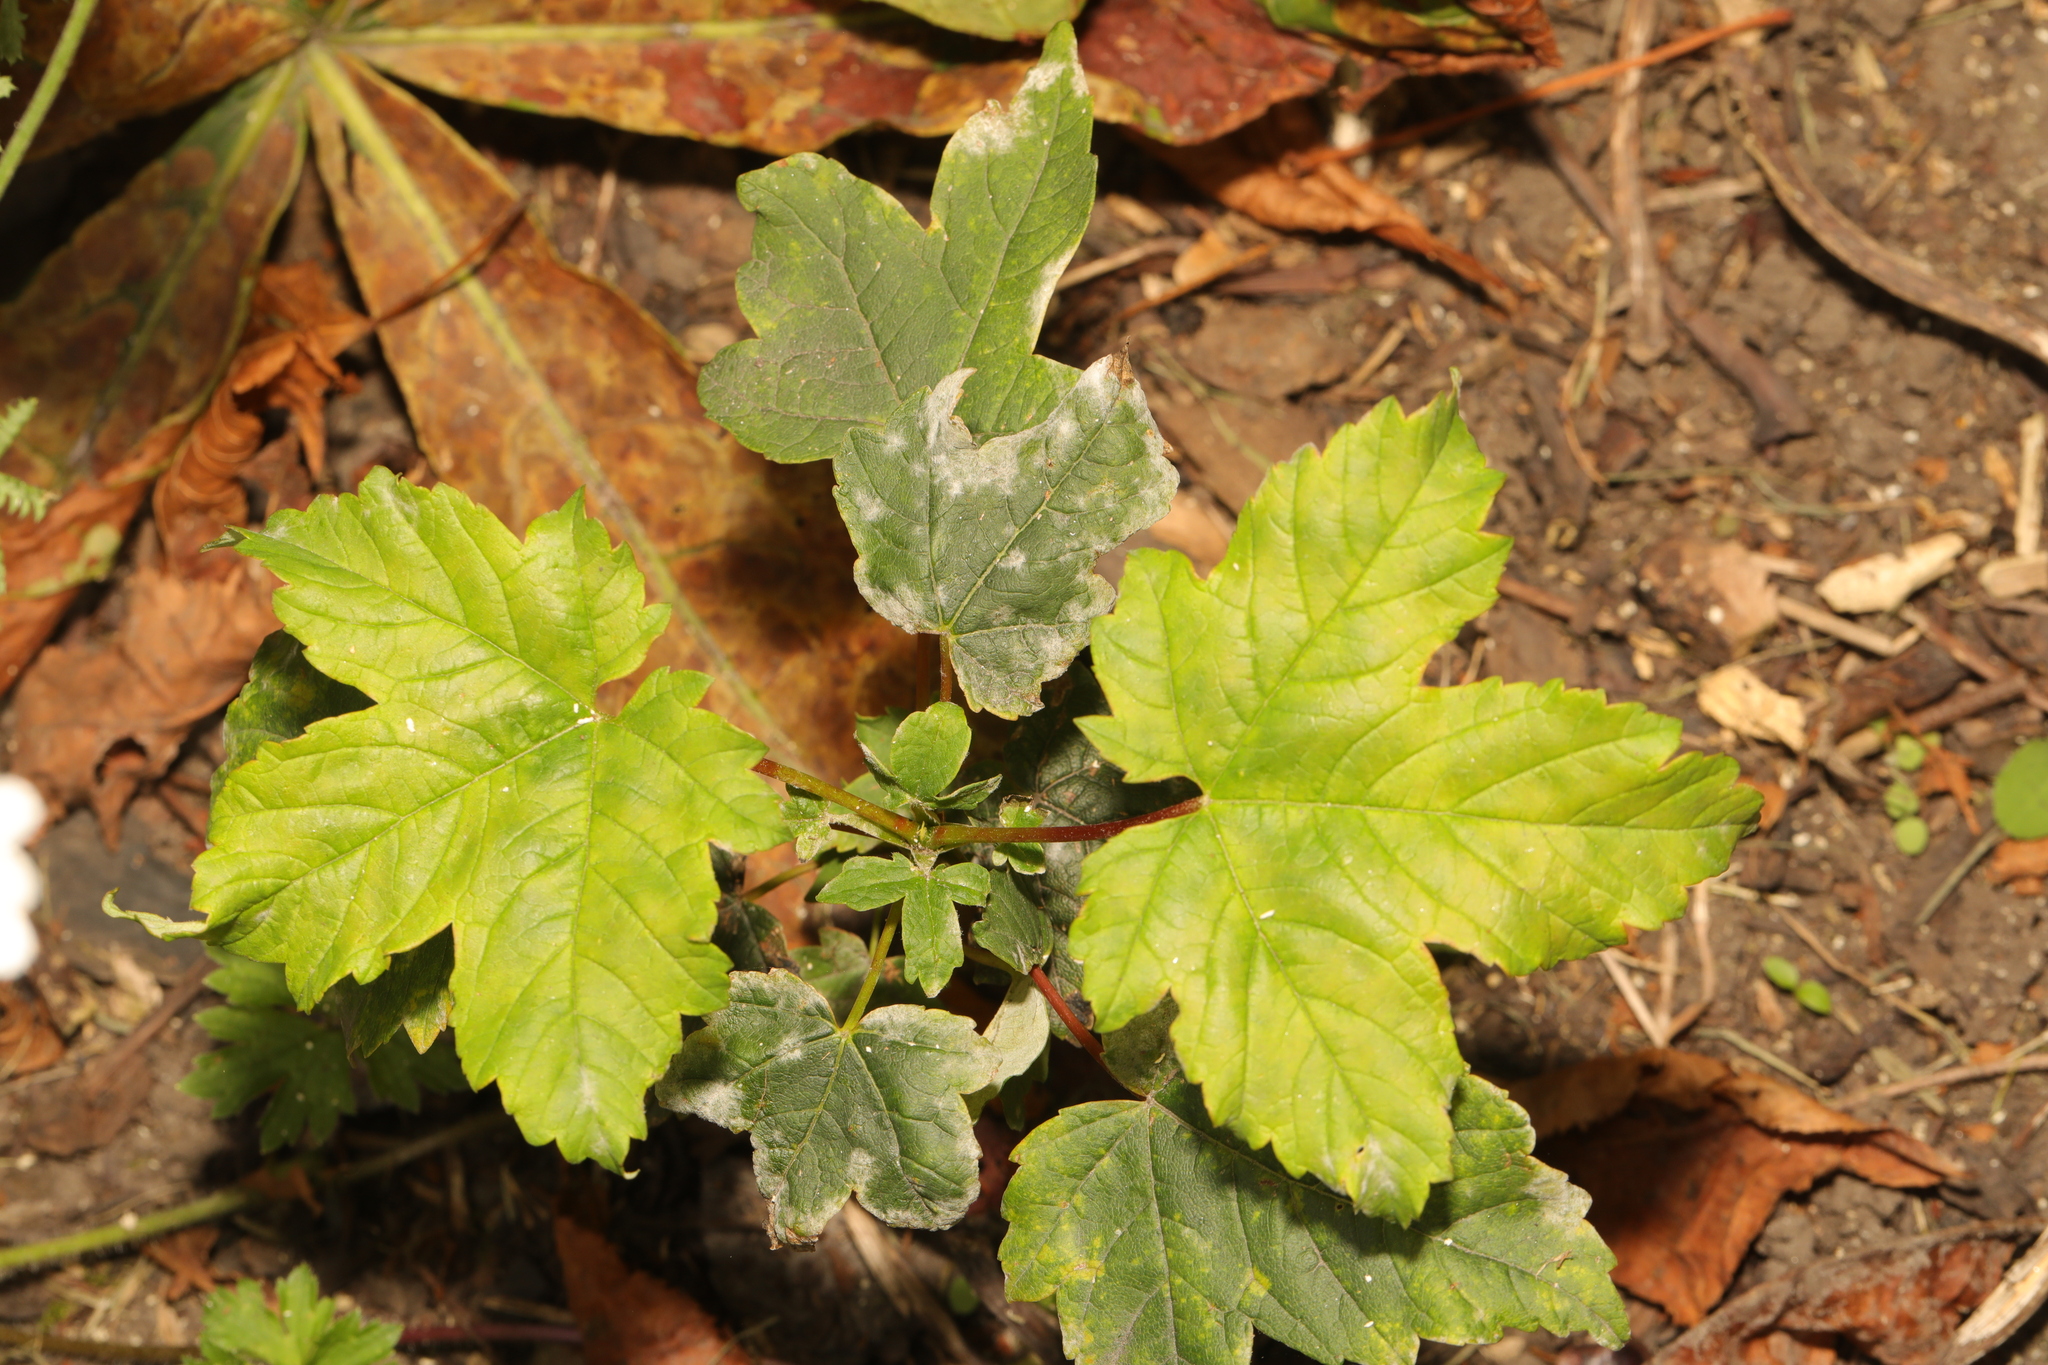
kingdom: Plantae
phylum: Tracheophyta
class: Magnoliopsida
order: Sapindales
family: Sapindaceae
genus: Acer
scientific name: Acer pseudoplatanus
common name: Sycamore
